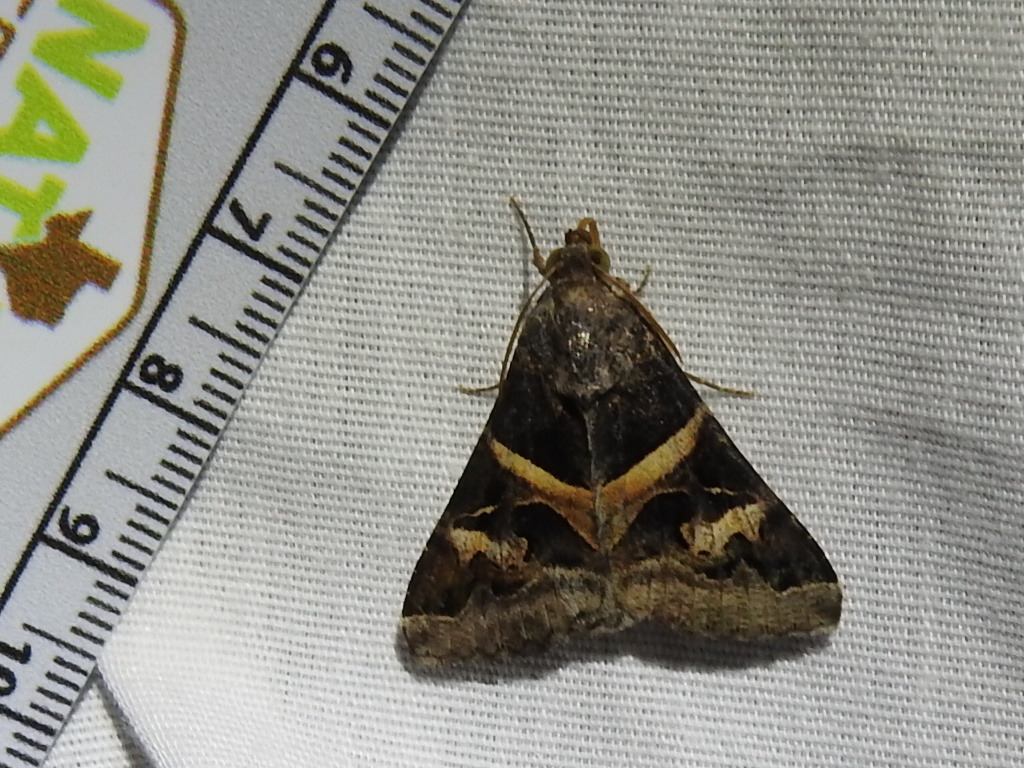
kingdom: Animalia
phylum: Arthropoda
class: Insecta
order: Lepidoptera
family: Erebidae
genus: Melipotis
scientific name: Melipotis indomita
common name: Moth
